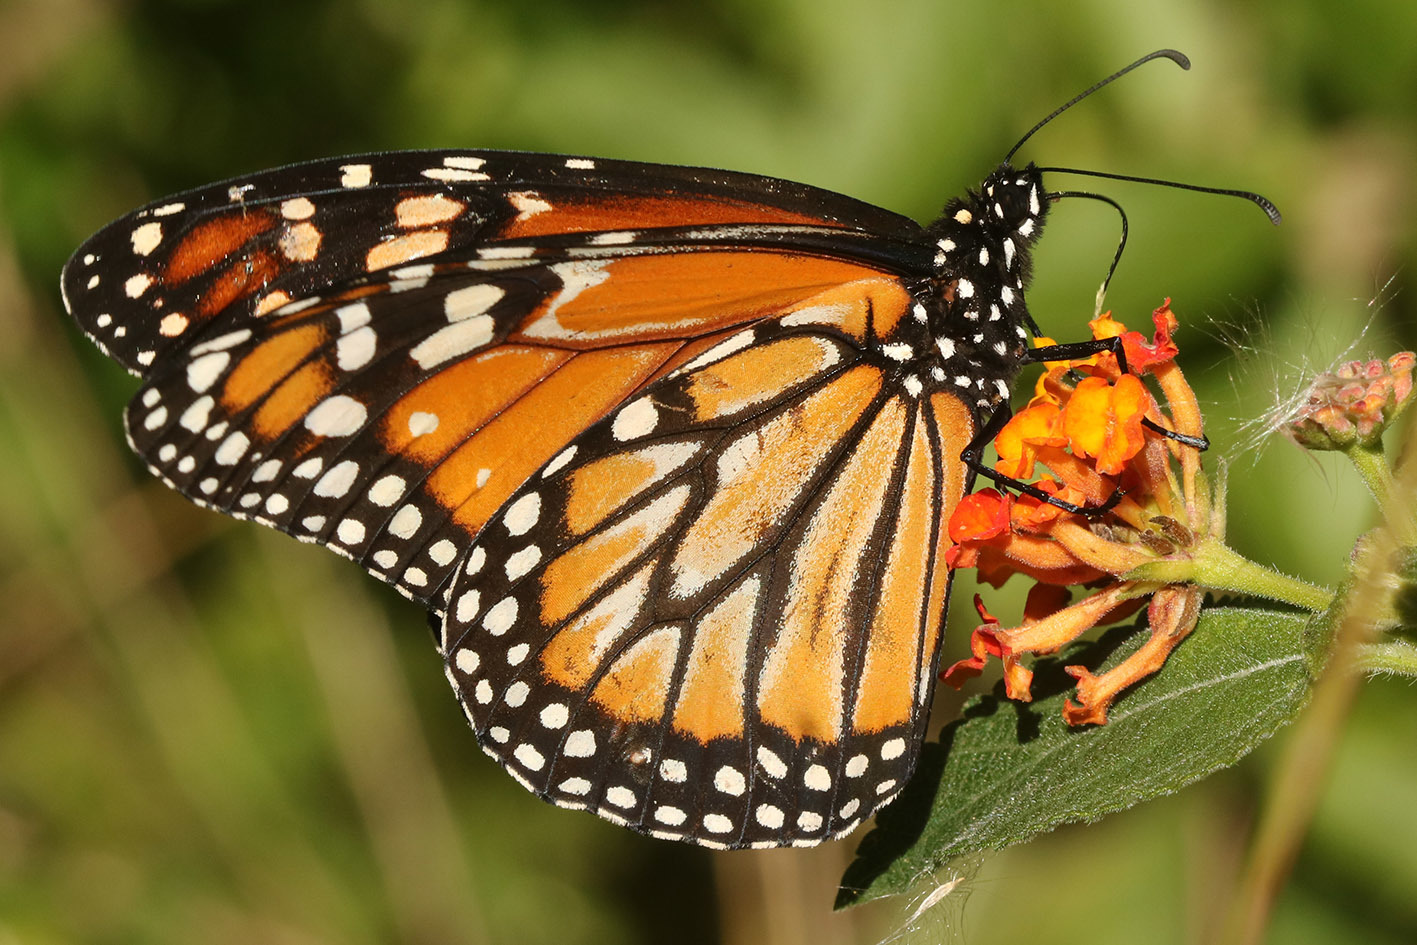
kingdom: Animalia
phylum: Arthropoda
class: Insecta
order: Lepidoptera
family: Nymphalidae
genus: Danaus
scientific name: Danaus erippus
